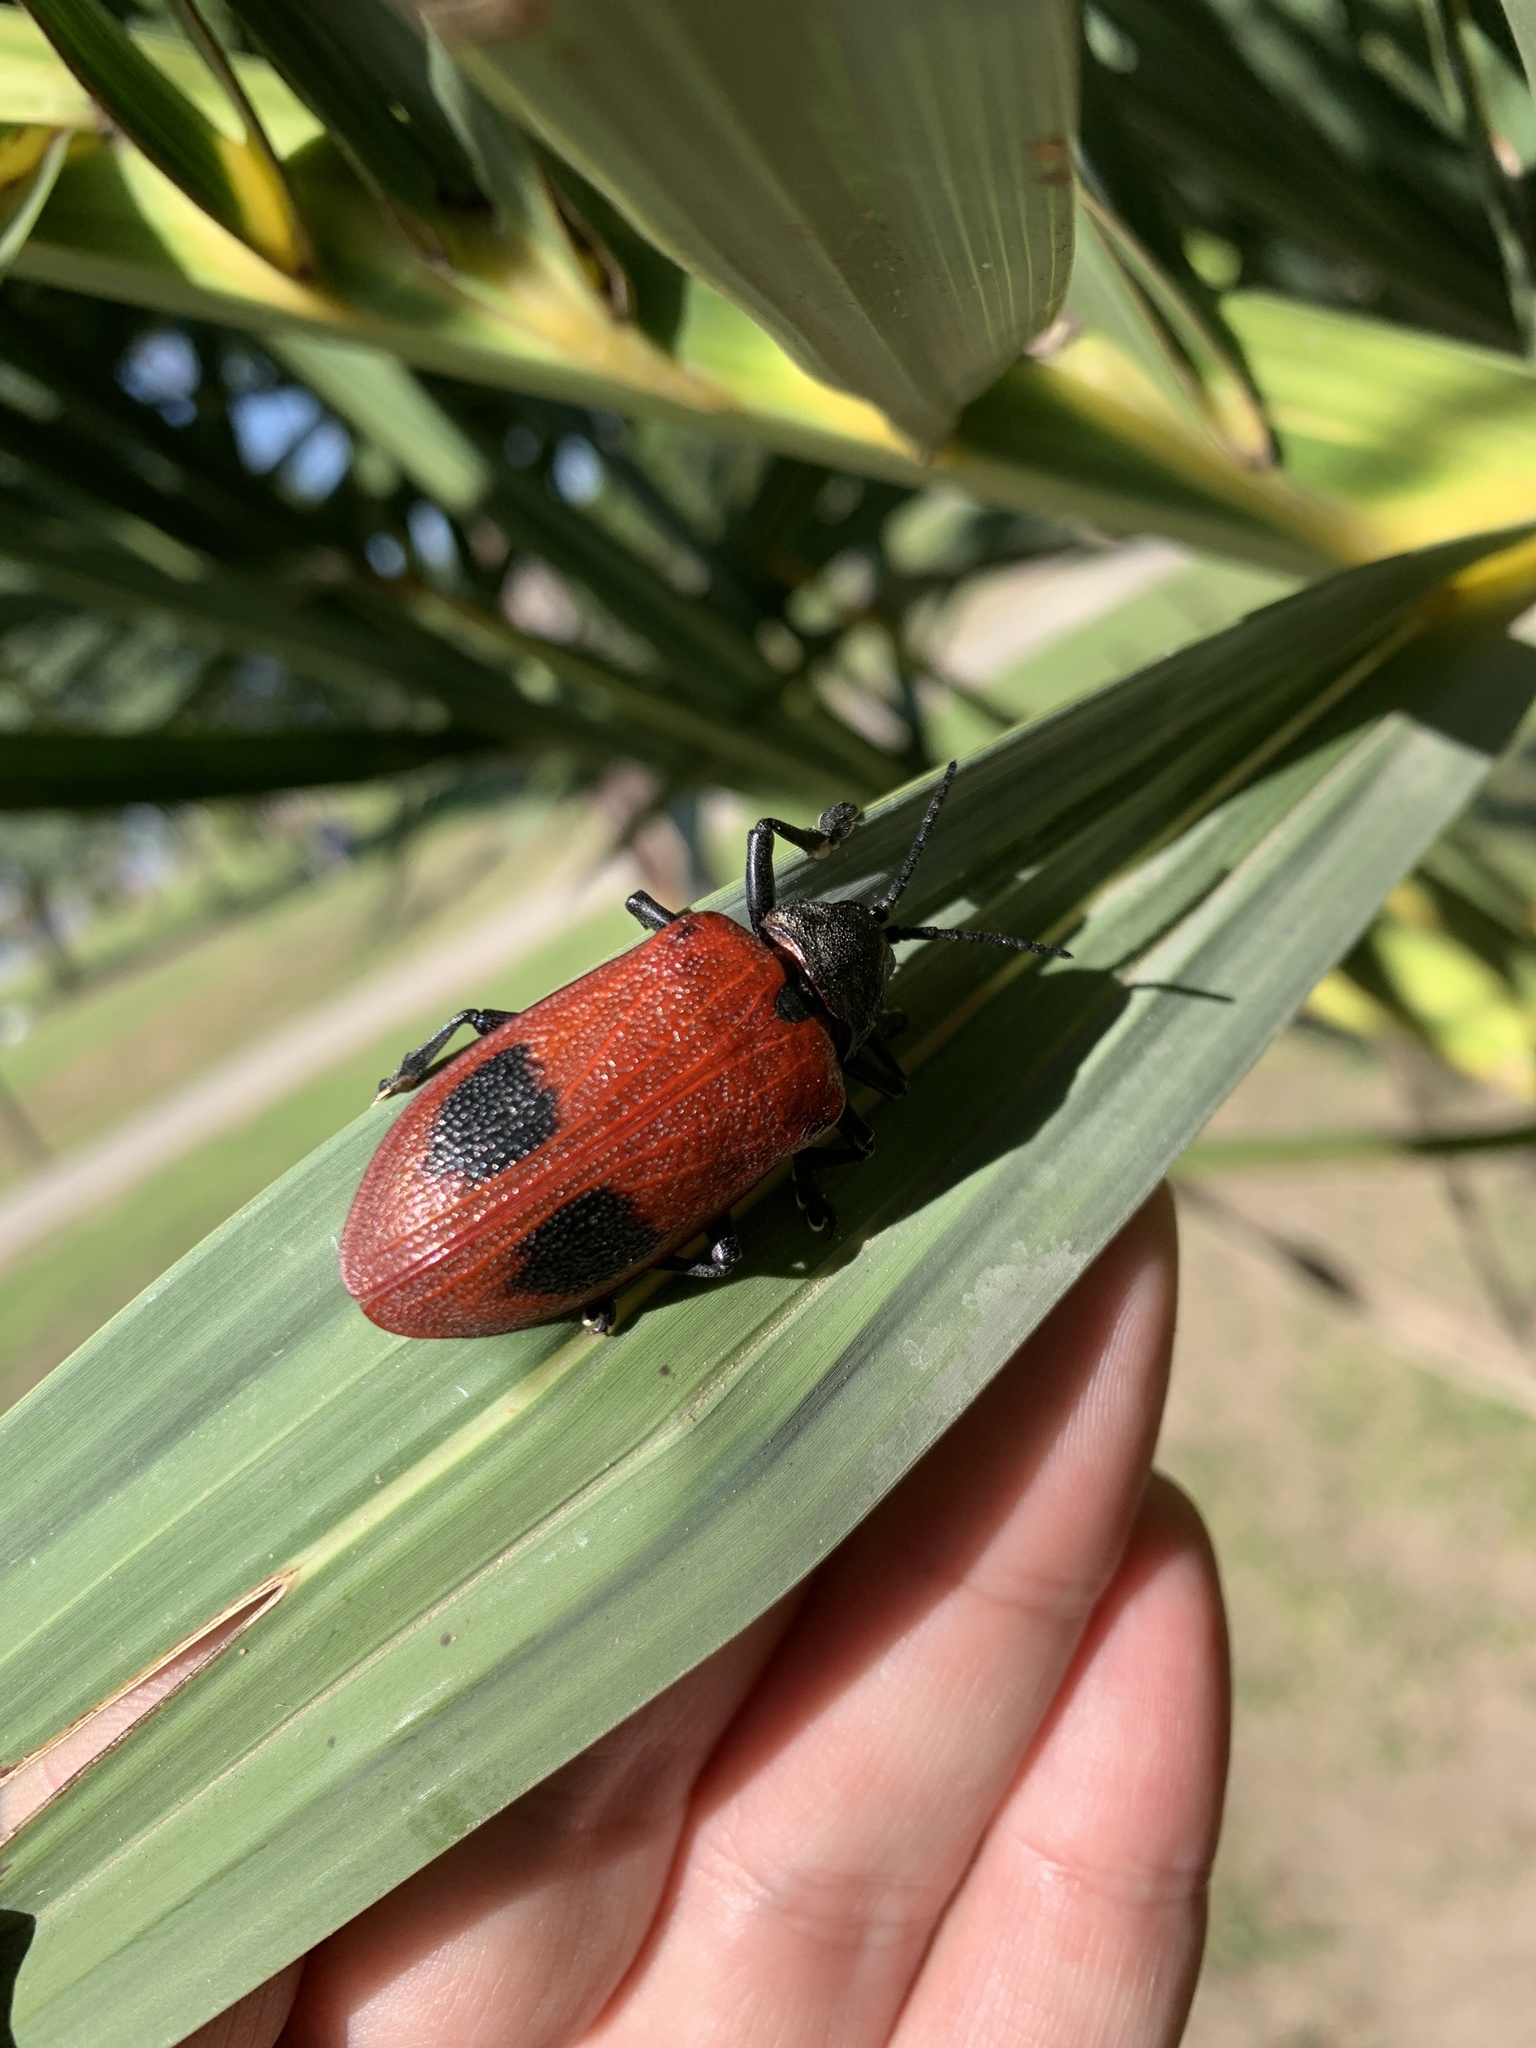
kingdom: Animalia
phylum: Arthropoda
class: Insecta
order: Coleoptera
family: Chrysomelidae
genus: Coraliomela
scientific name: Coraliomela quadrimaculata
